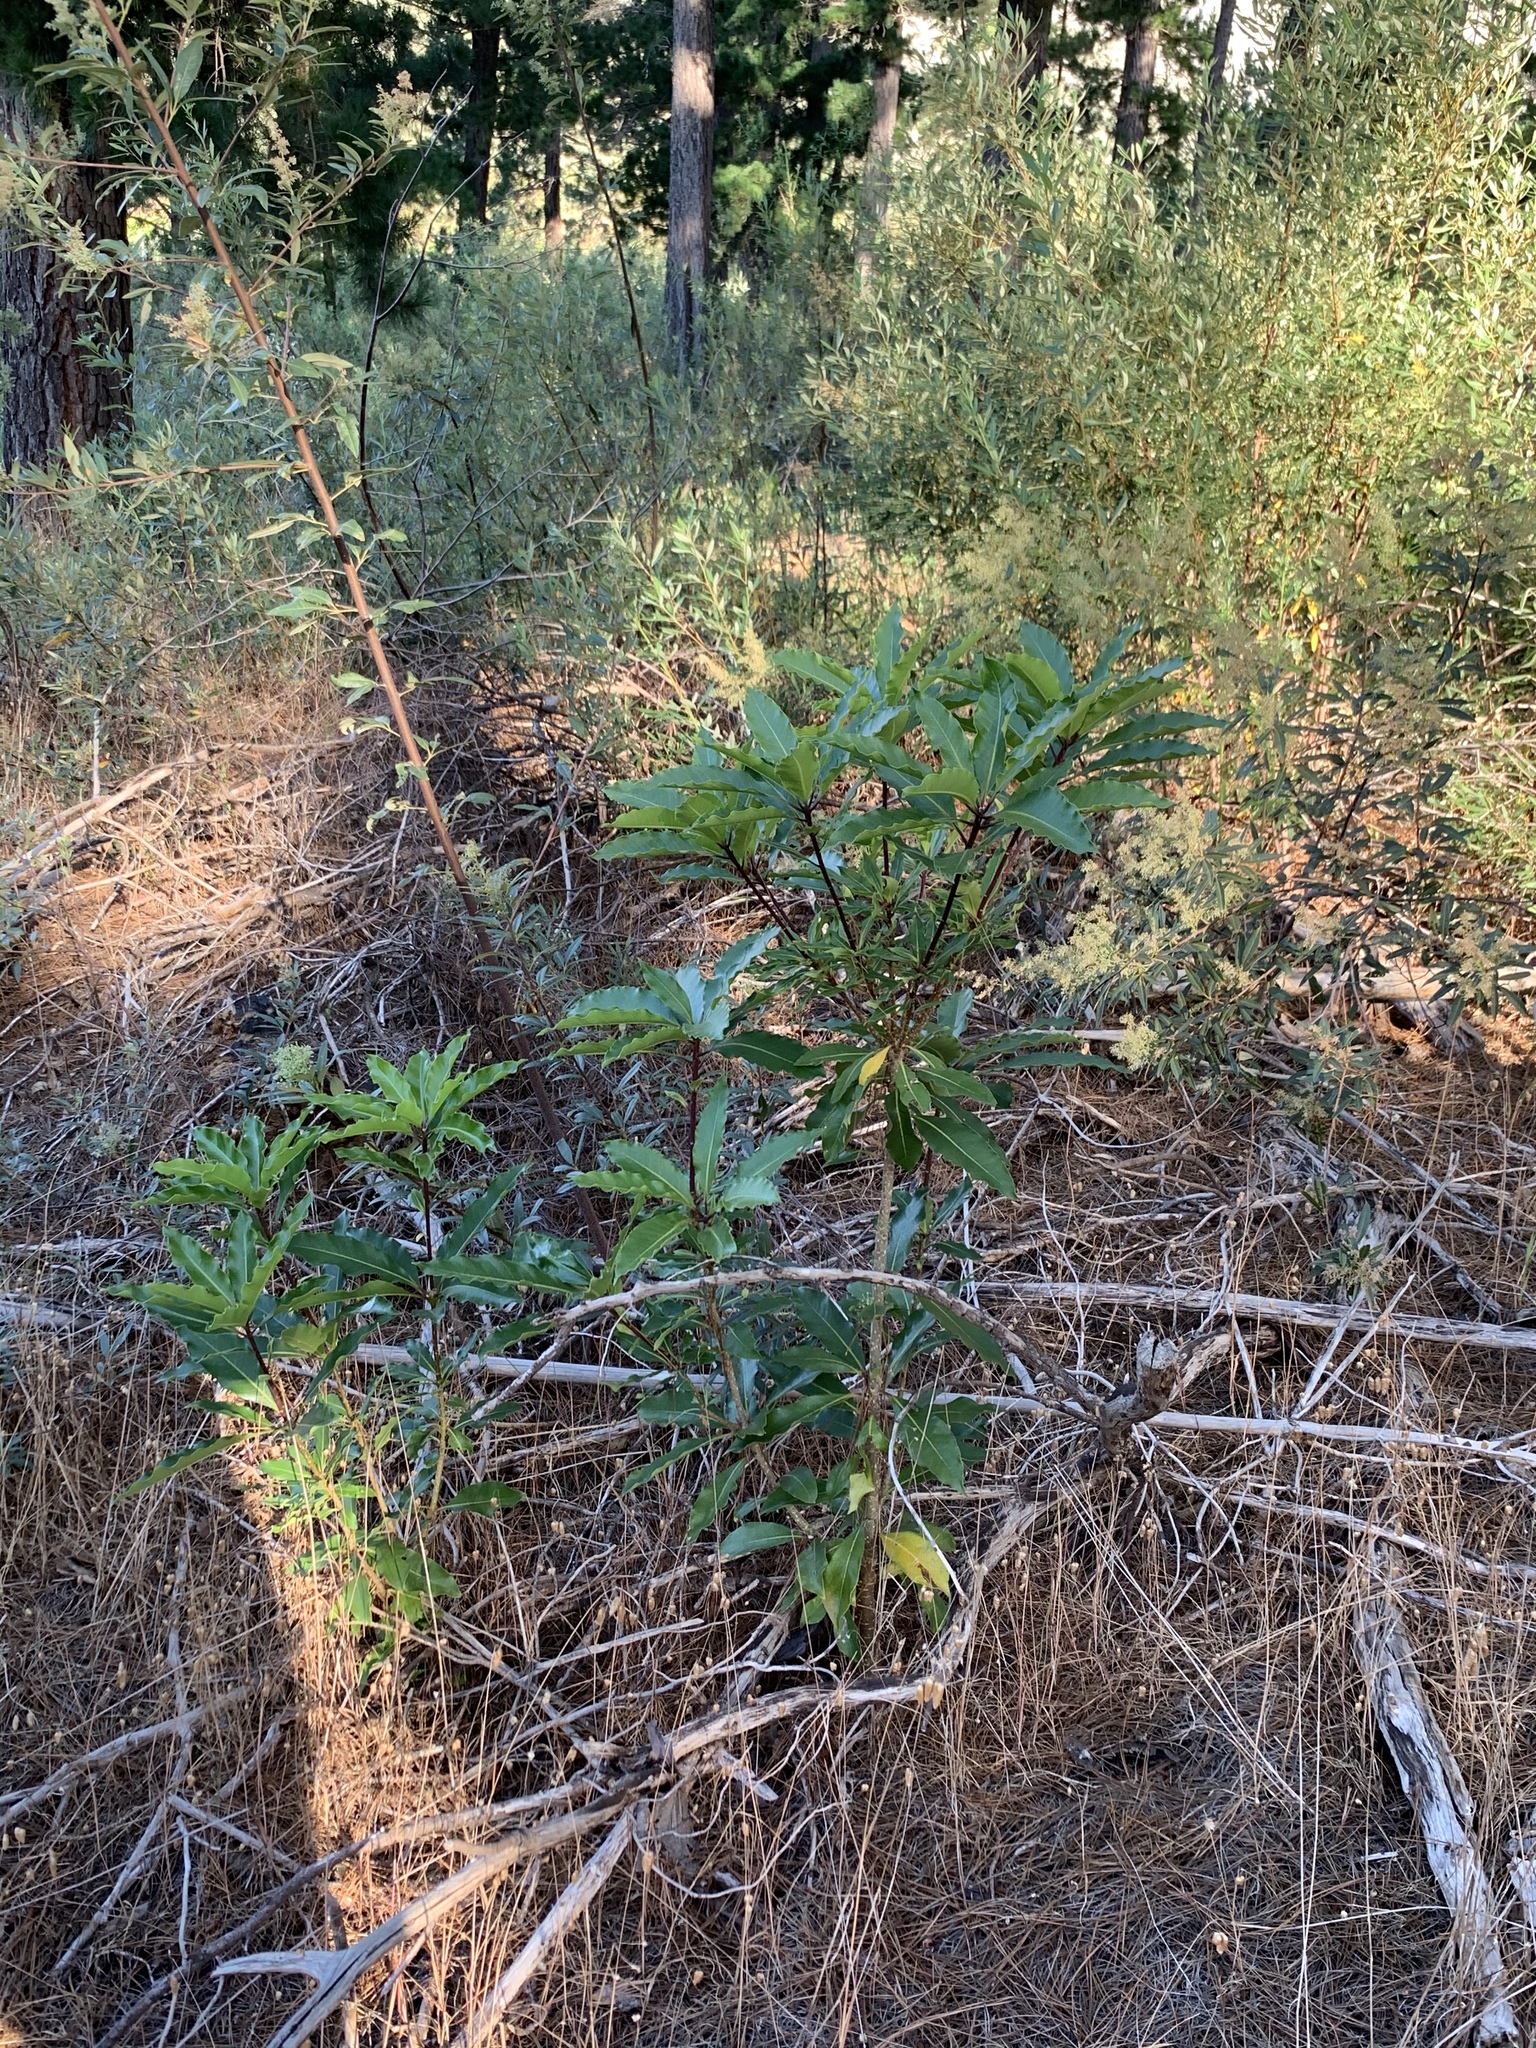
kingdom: Plantae
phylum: Tracheophyta
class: Magnoliopsida
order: Apiales
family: Pittosporaceae
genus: Pittosporum
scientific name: Pittosporum undulatum
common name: Australian cheesewood
